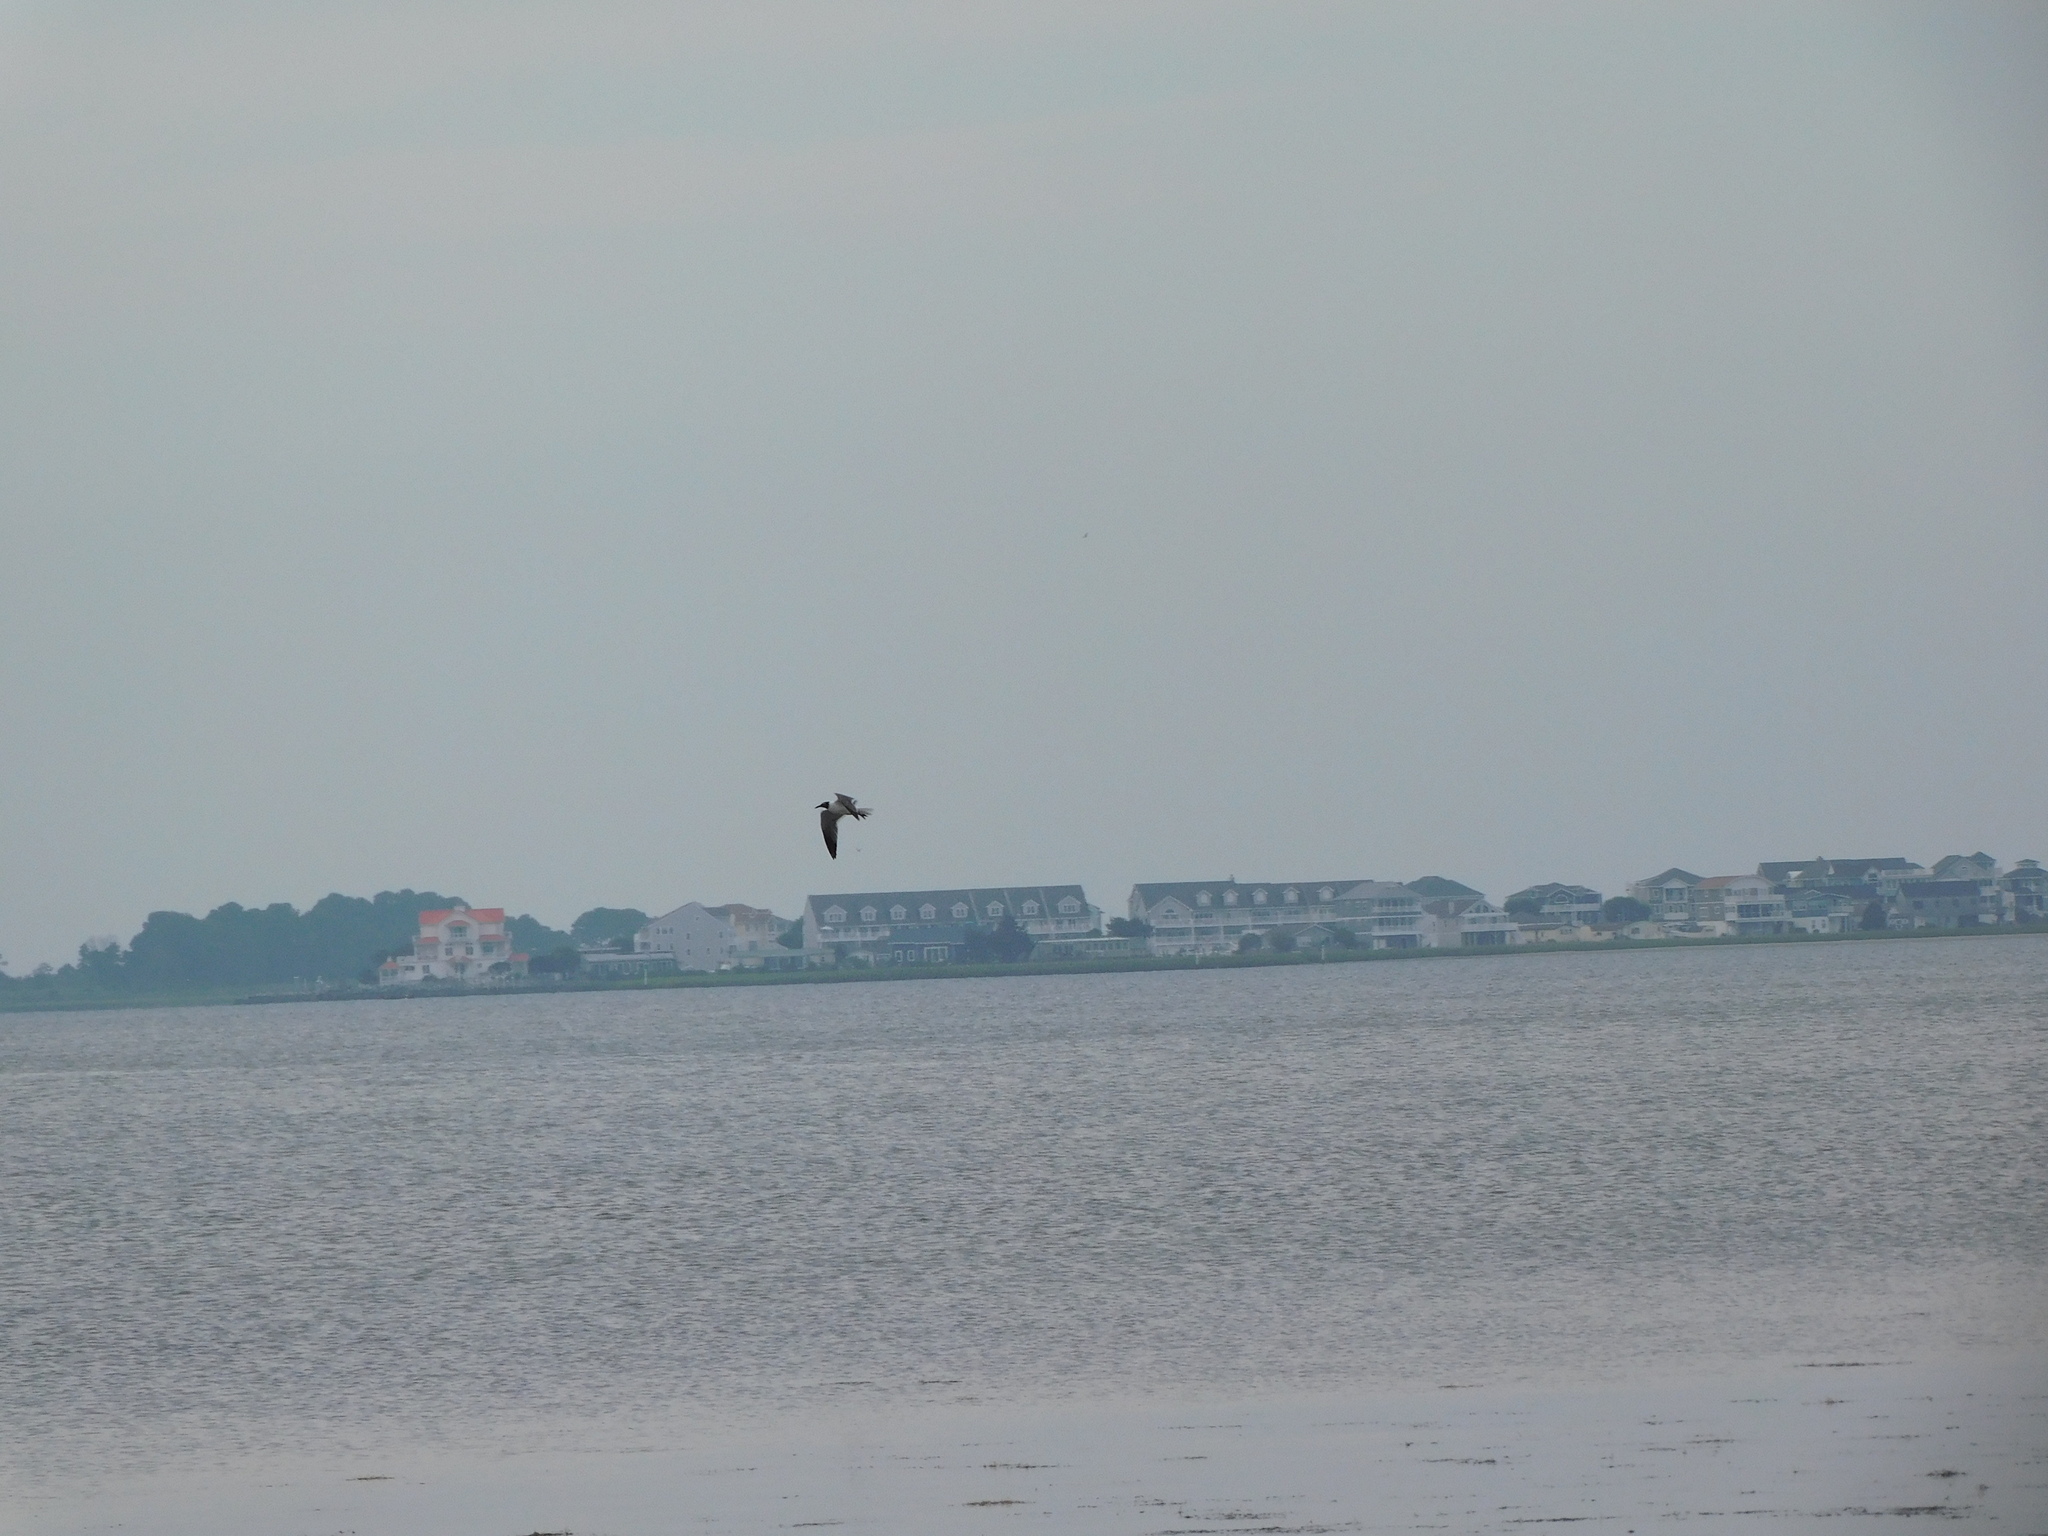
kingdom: Animalia
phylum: Chordata
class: Aves
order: Charadriiformes
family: Laridae
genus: Leucophaeus
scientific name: Leucophaeus atricilla
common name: Laughing gull
